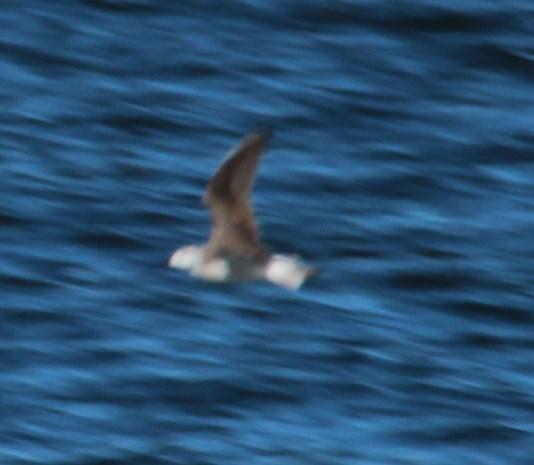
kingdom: Animalia
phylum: Chordata
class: Aves
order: Charadriiformes
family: Scolopacidae
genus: Phalaropus
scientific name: Phalaropus tricolor
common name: Wilson's phalarope
